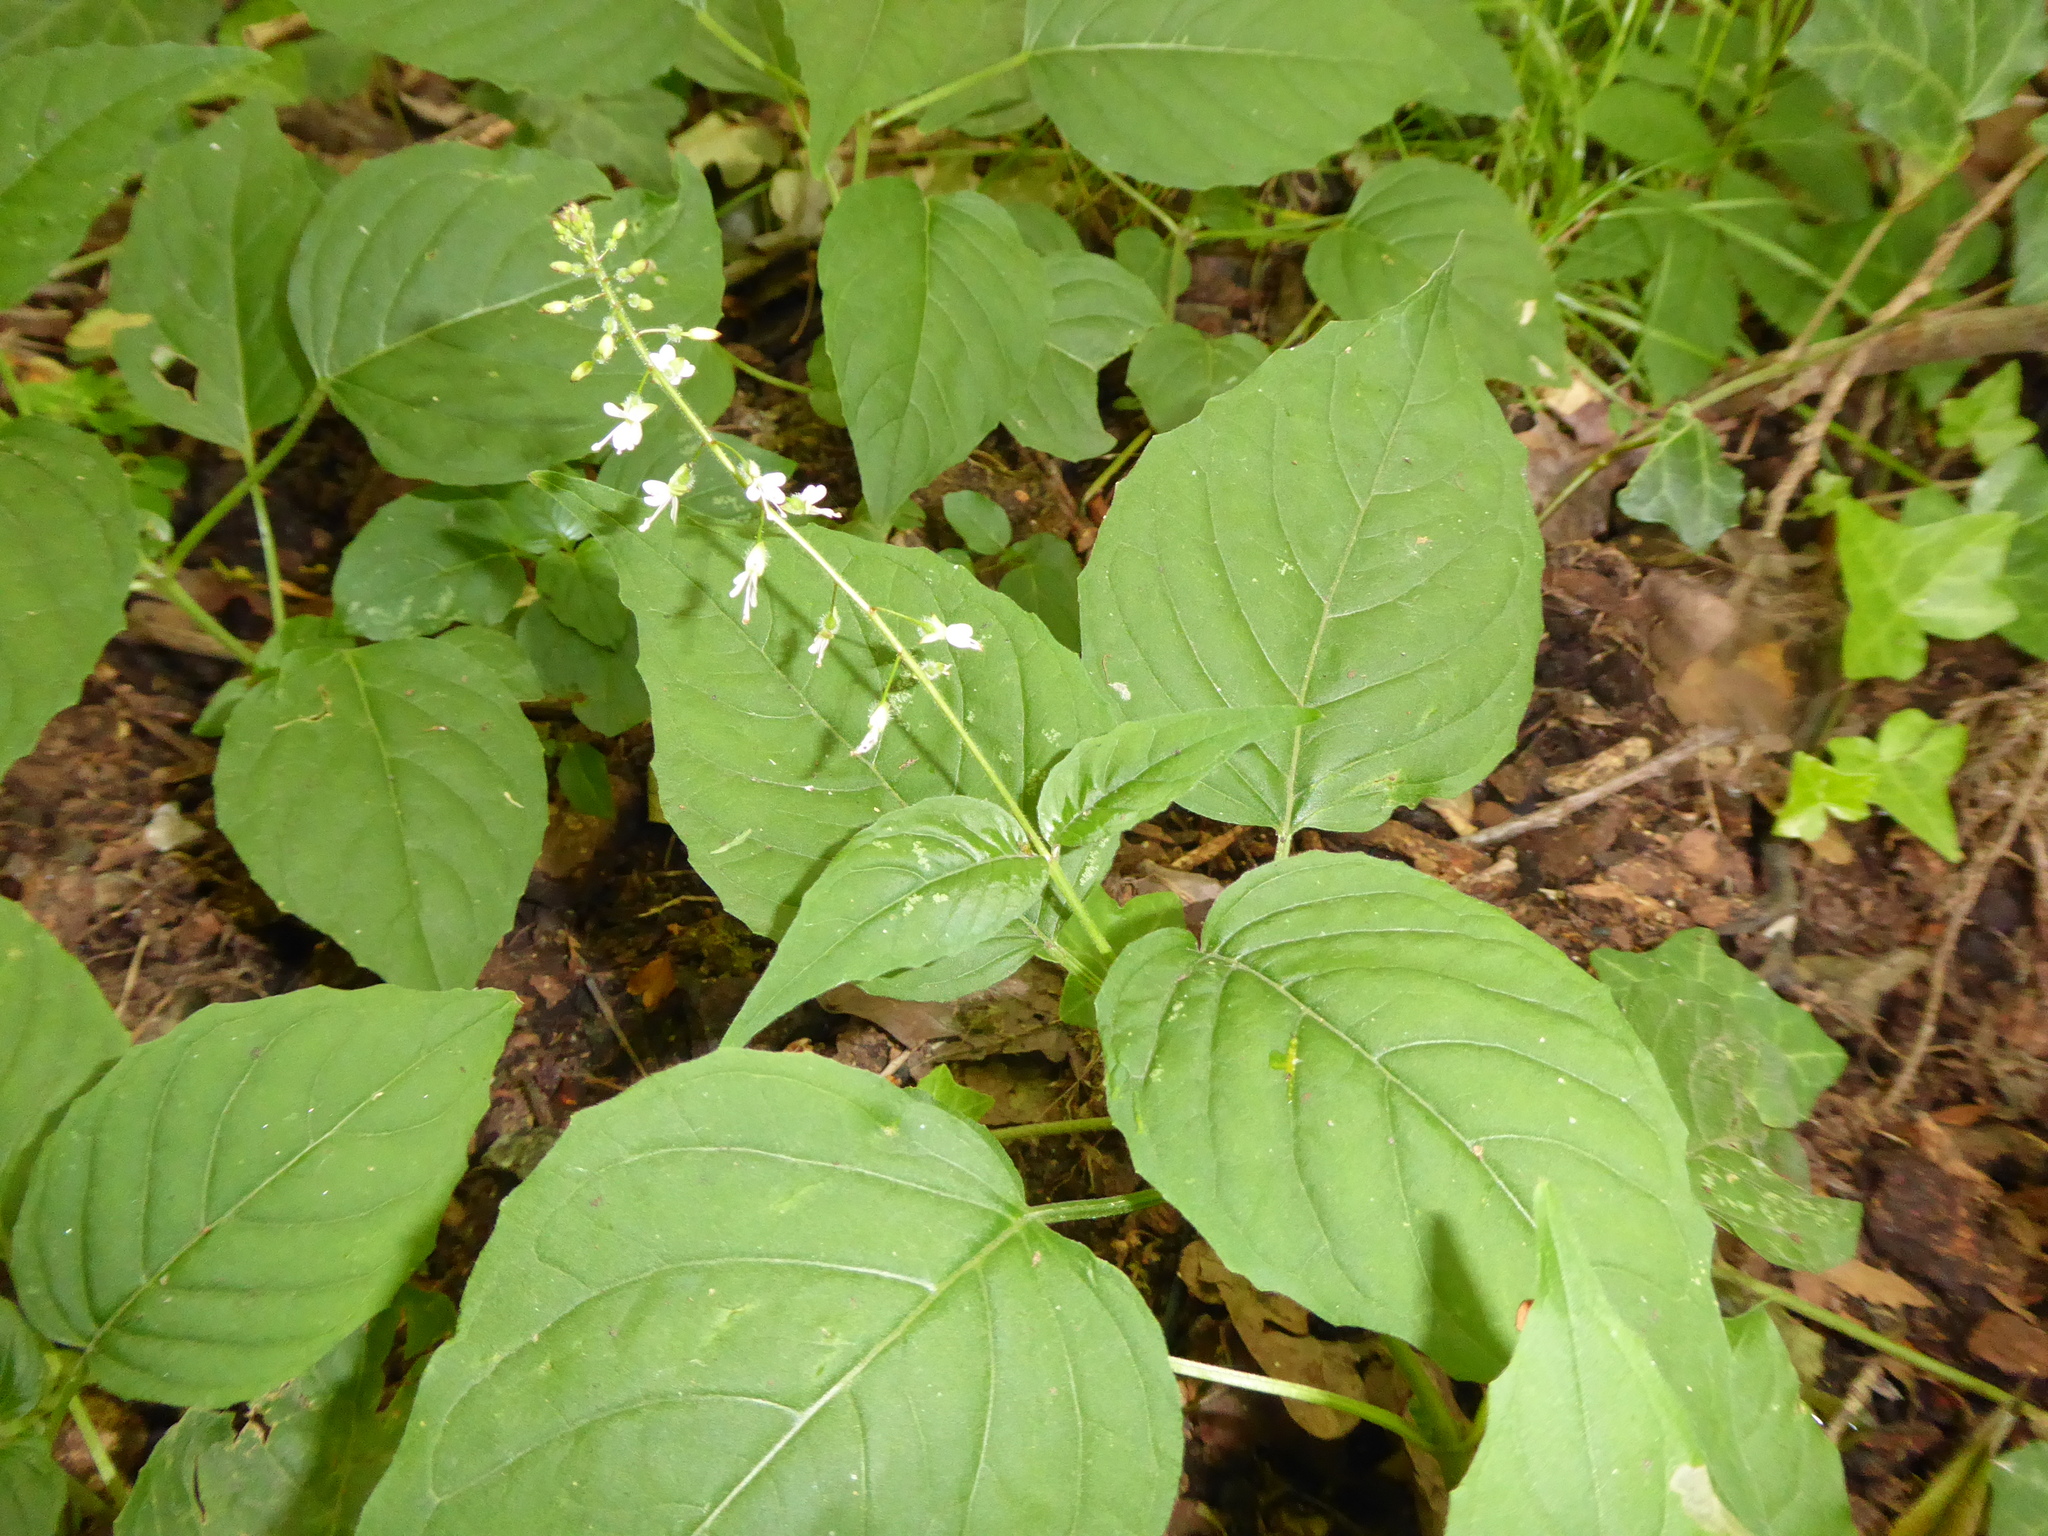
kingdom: Plantae
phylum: Tracheophyta
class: Magnoliopsida
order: Myrtales
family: Onagraceae
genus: Circaea
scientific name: Circaea lutetiana
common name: Enchanter's-nightshade
